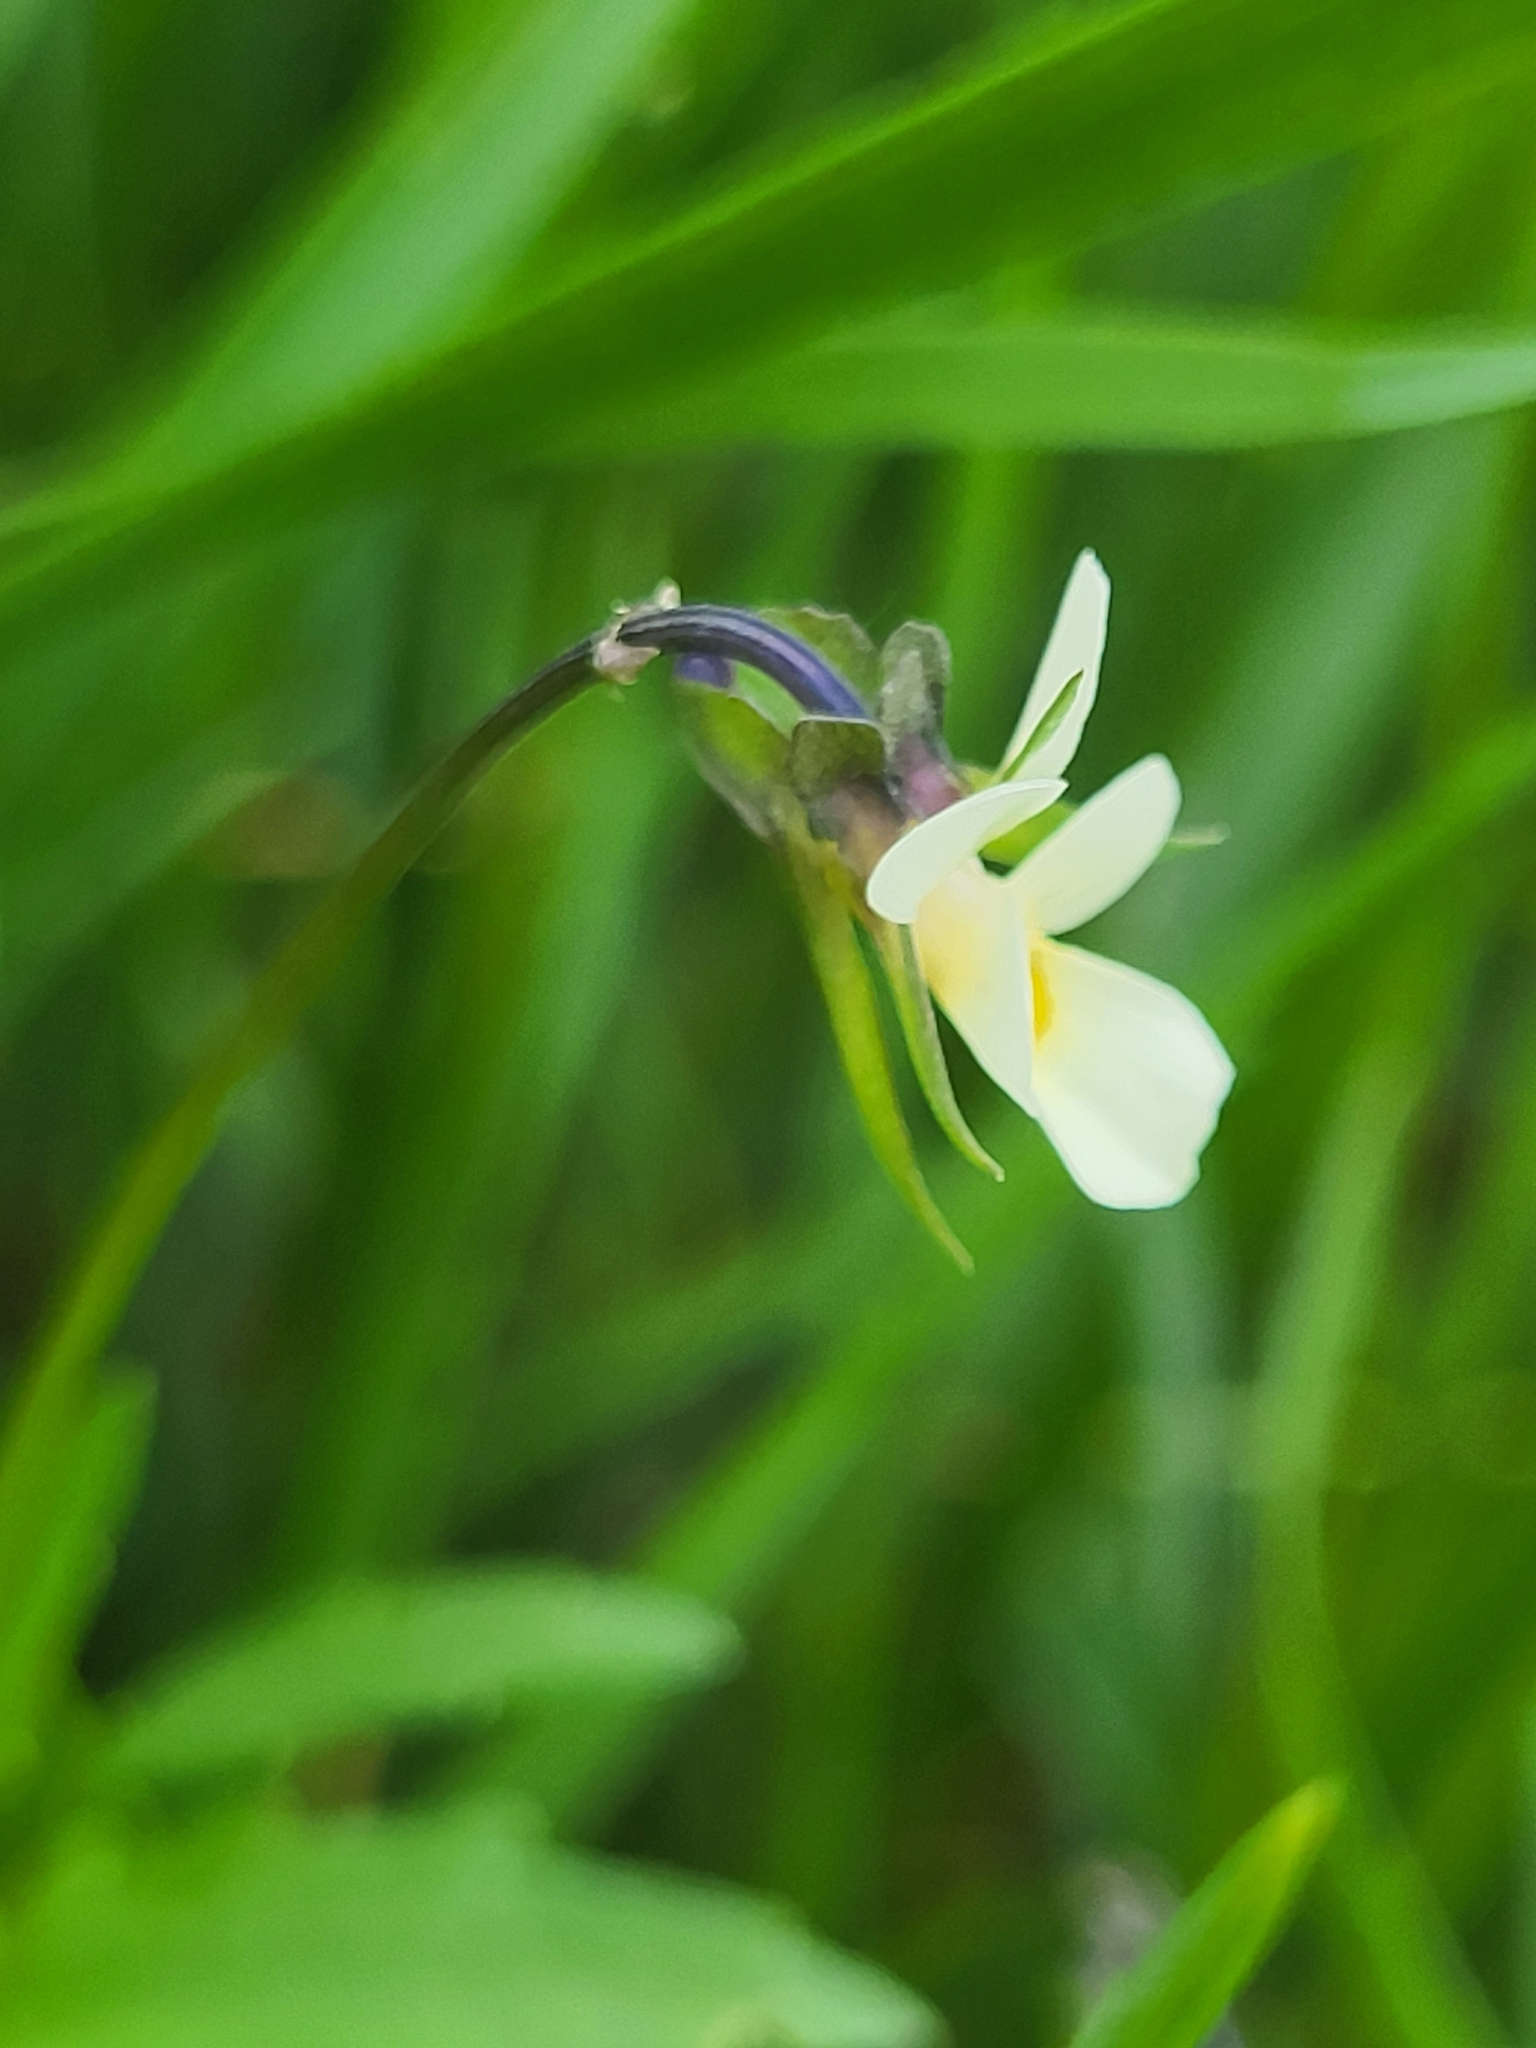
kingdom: Plantae
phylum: Tracheophyta
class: Magnoliopsida
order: Malpighiales
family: Violaceae
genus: Viola
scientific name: Viola arvensis
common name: Field pansy
